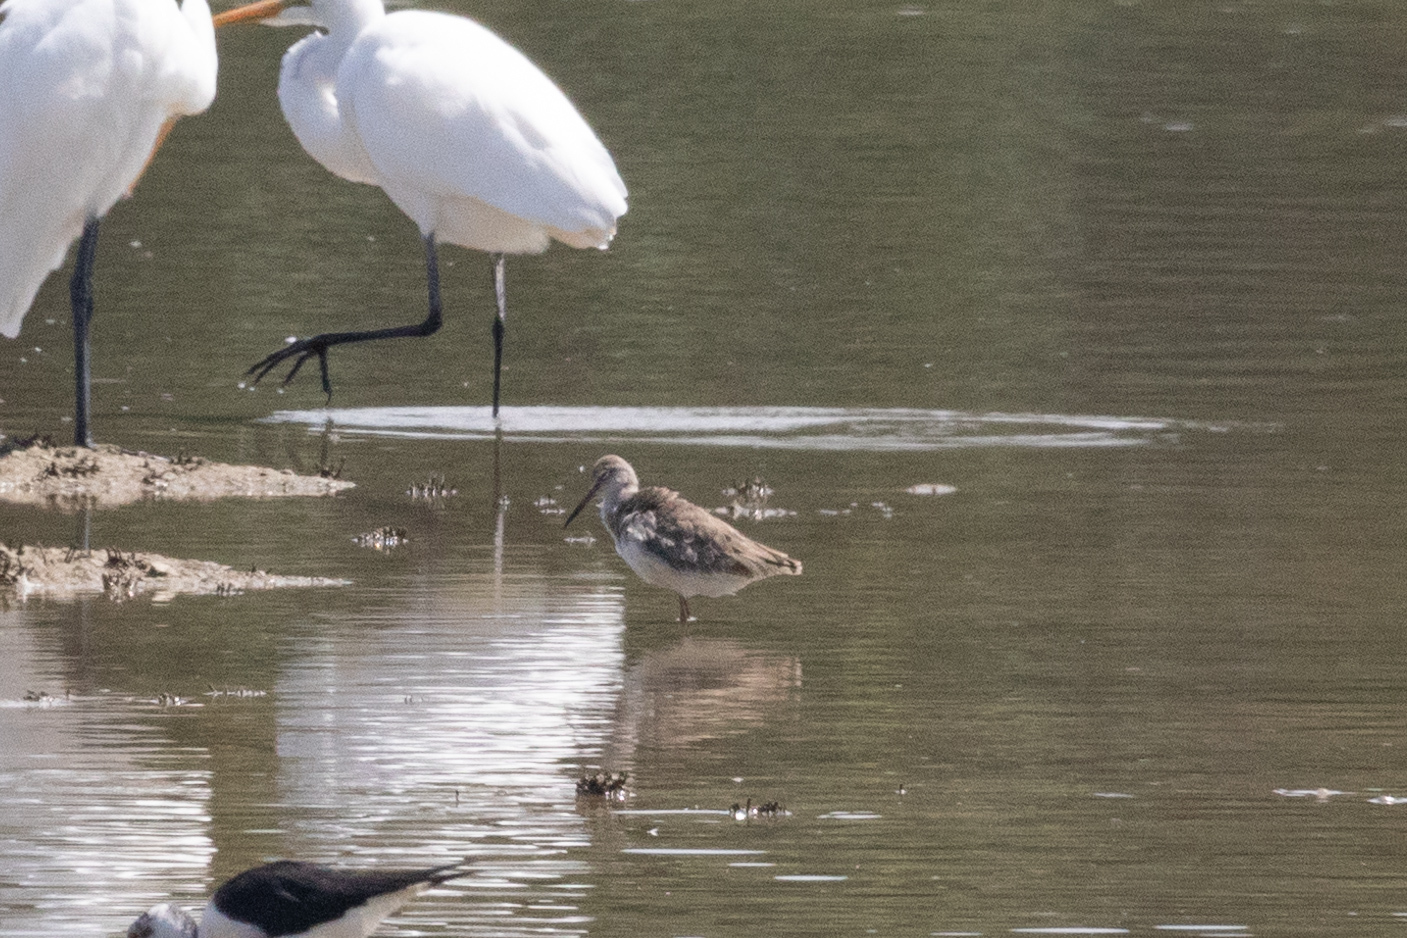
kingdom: Animalia
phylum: Chordata
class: Aves
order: Charadriiformes
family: Scolopacidae
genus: Tringa
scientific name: Tringa totanus
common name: Common redshank
